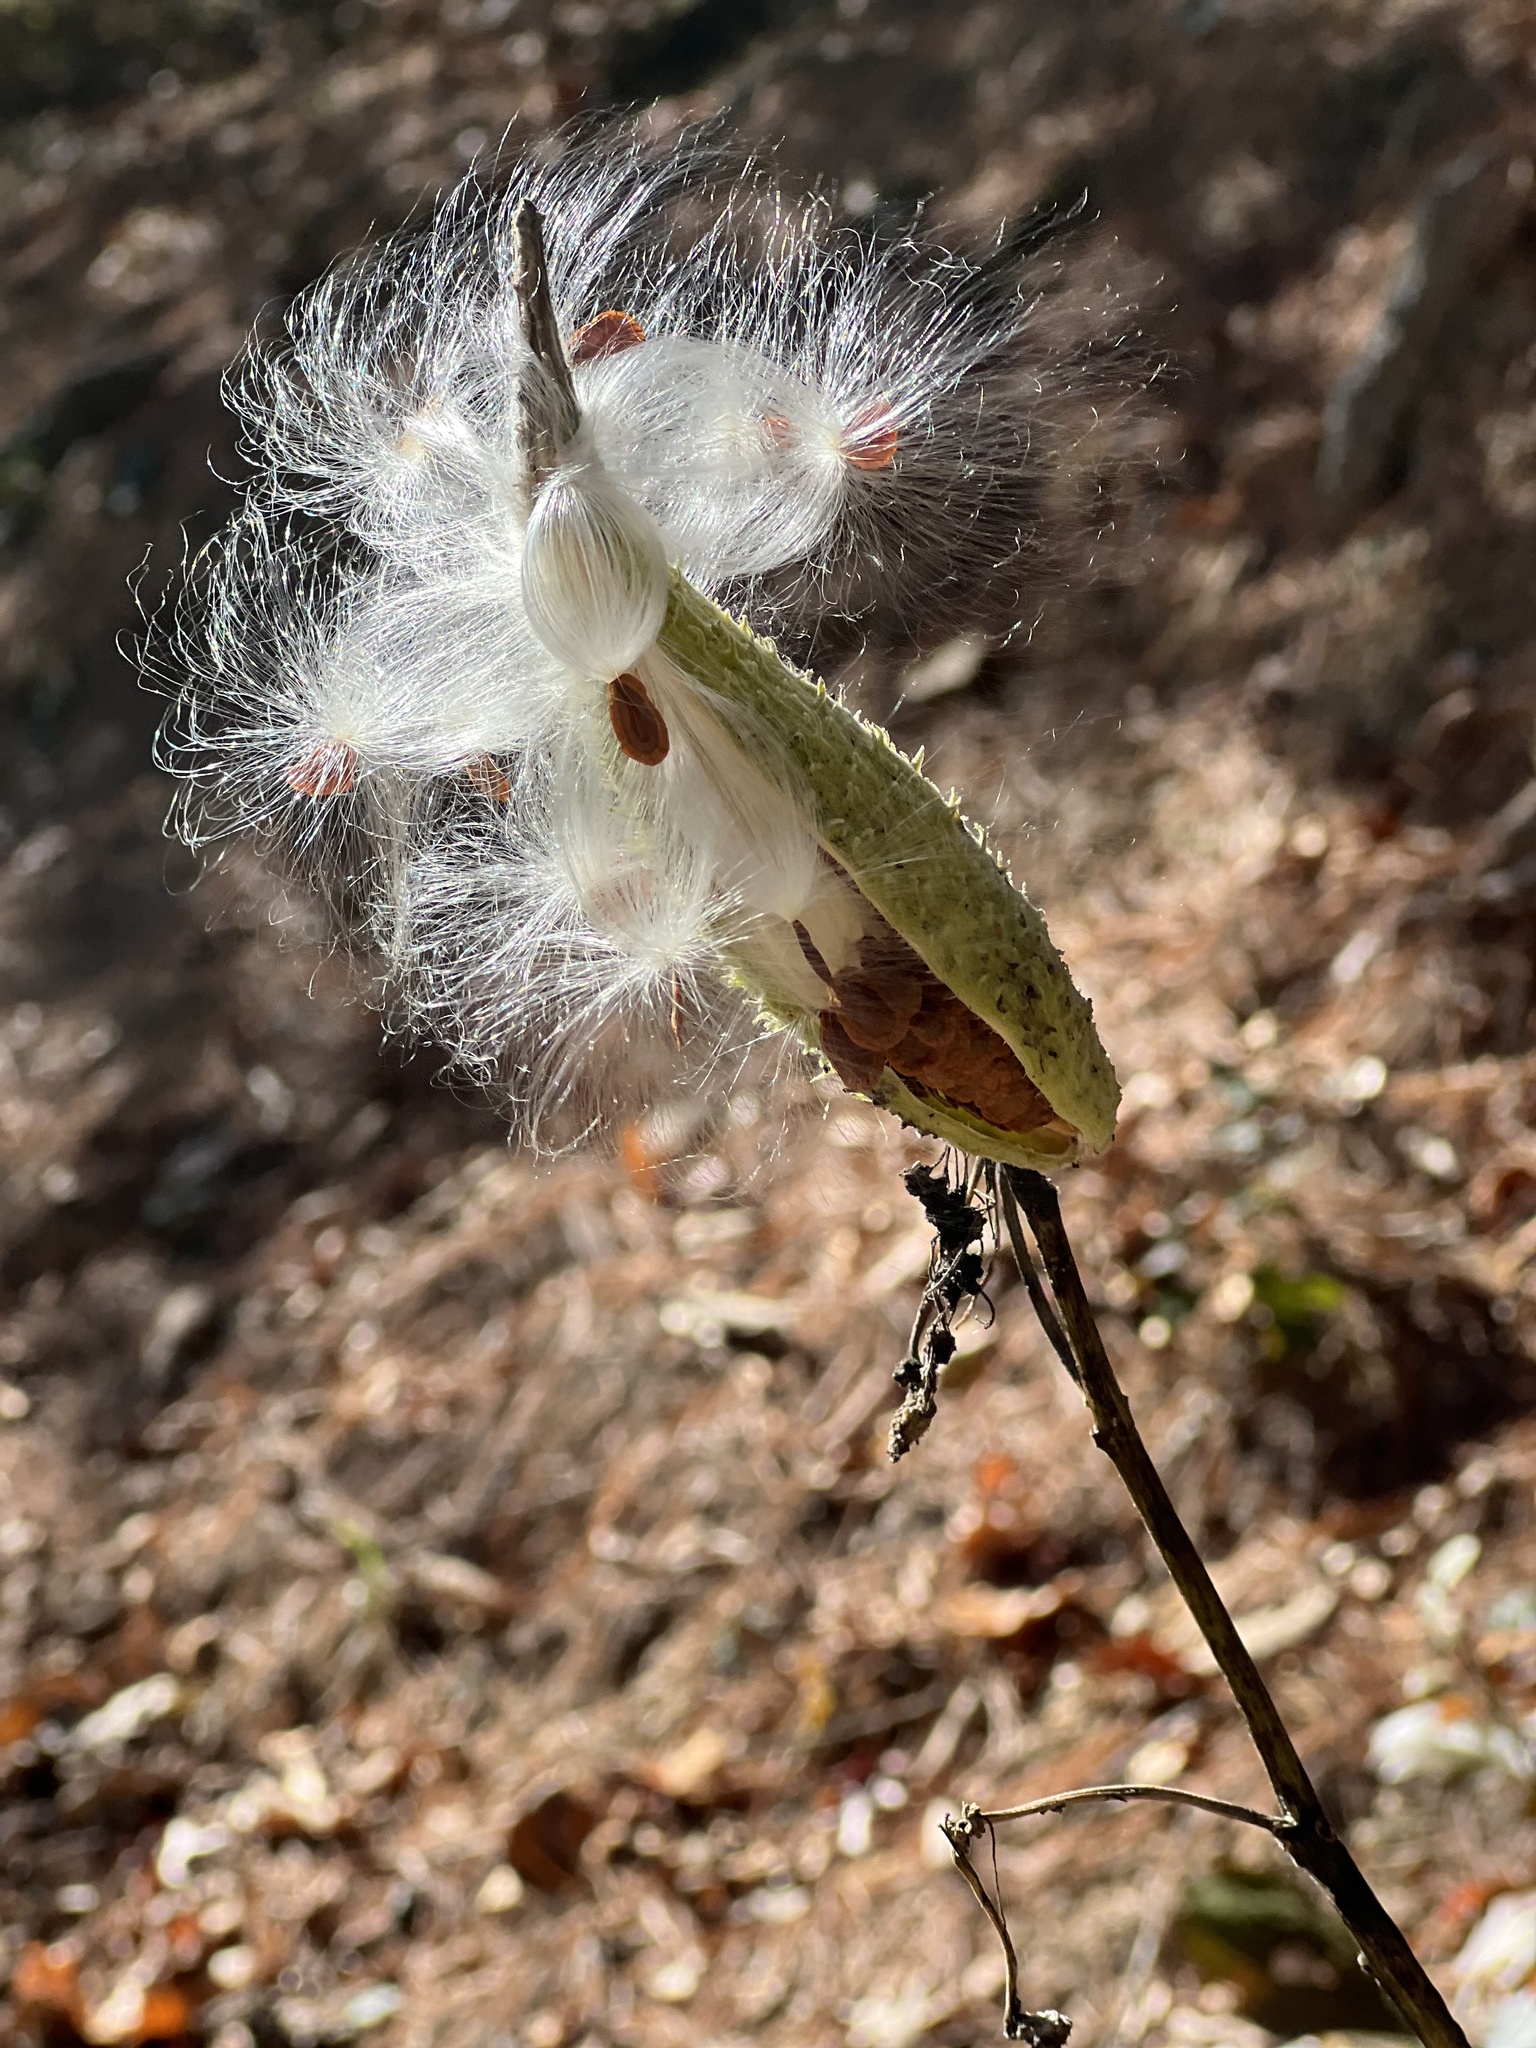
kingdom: Plantae
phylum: Tracheophyta
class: Magnoliopsida
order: Gentianales
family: Apocynaceae
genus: Asclepias
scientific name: Asclepias syriaca
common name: Common milkweed
